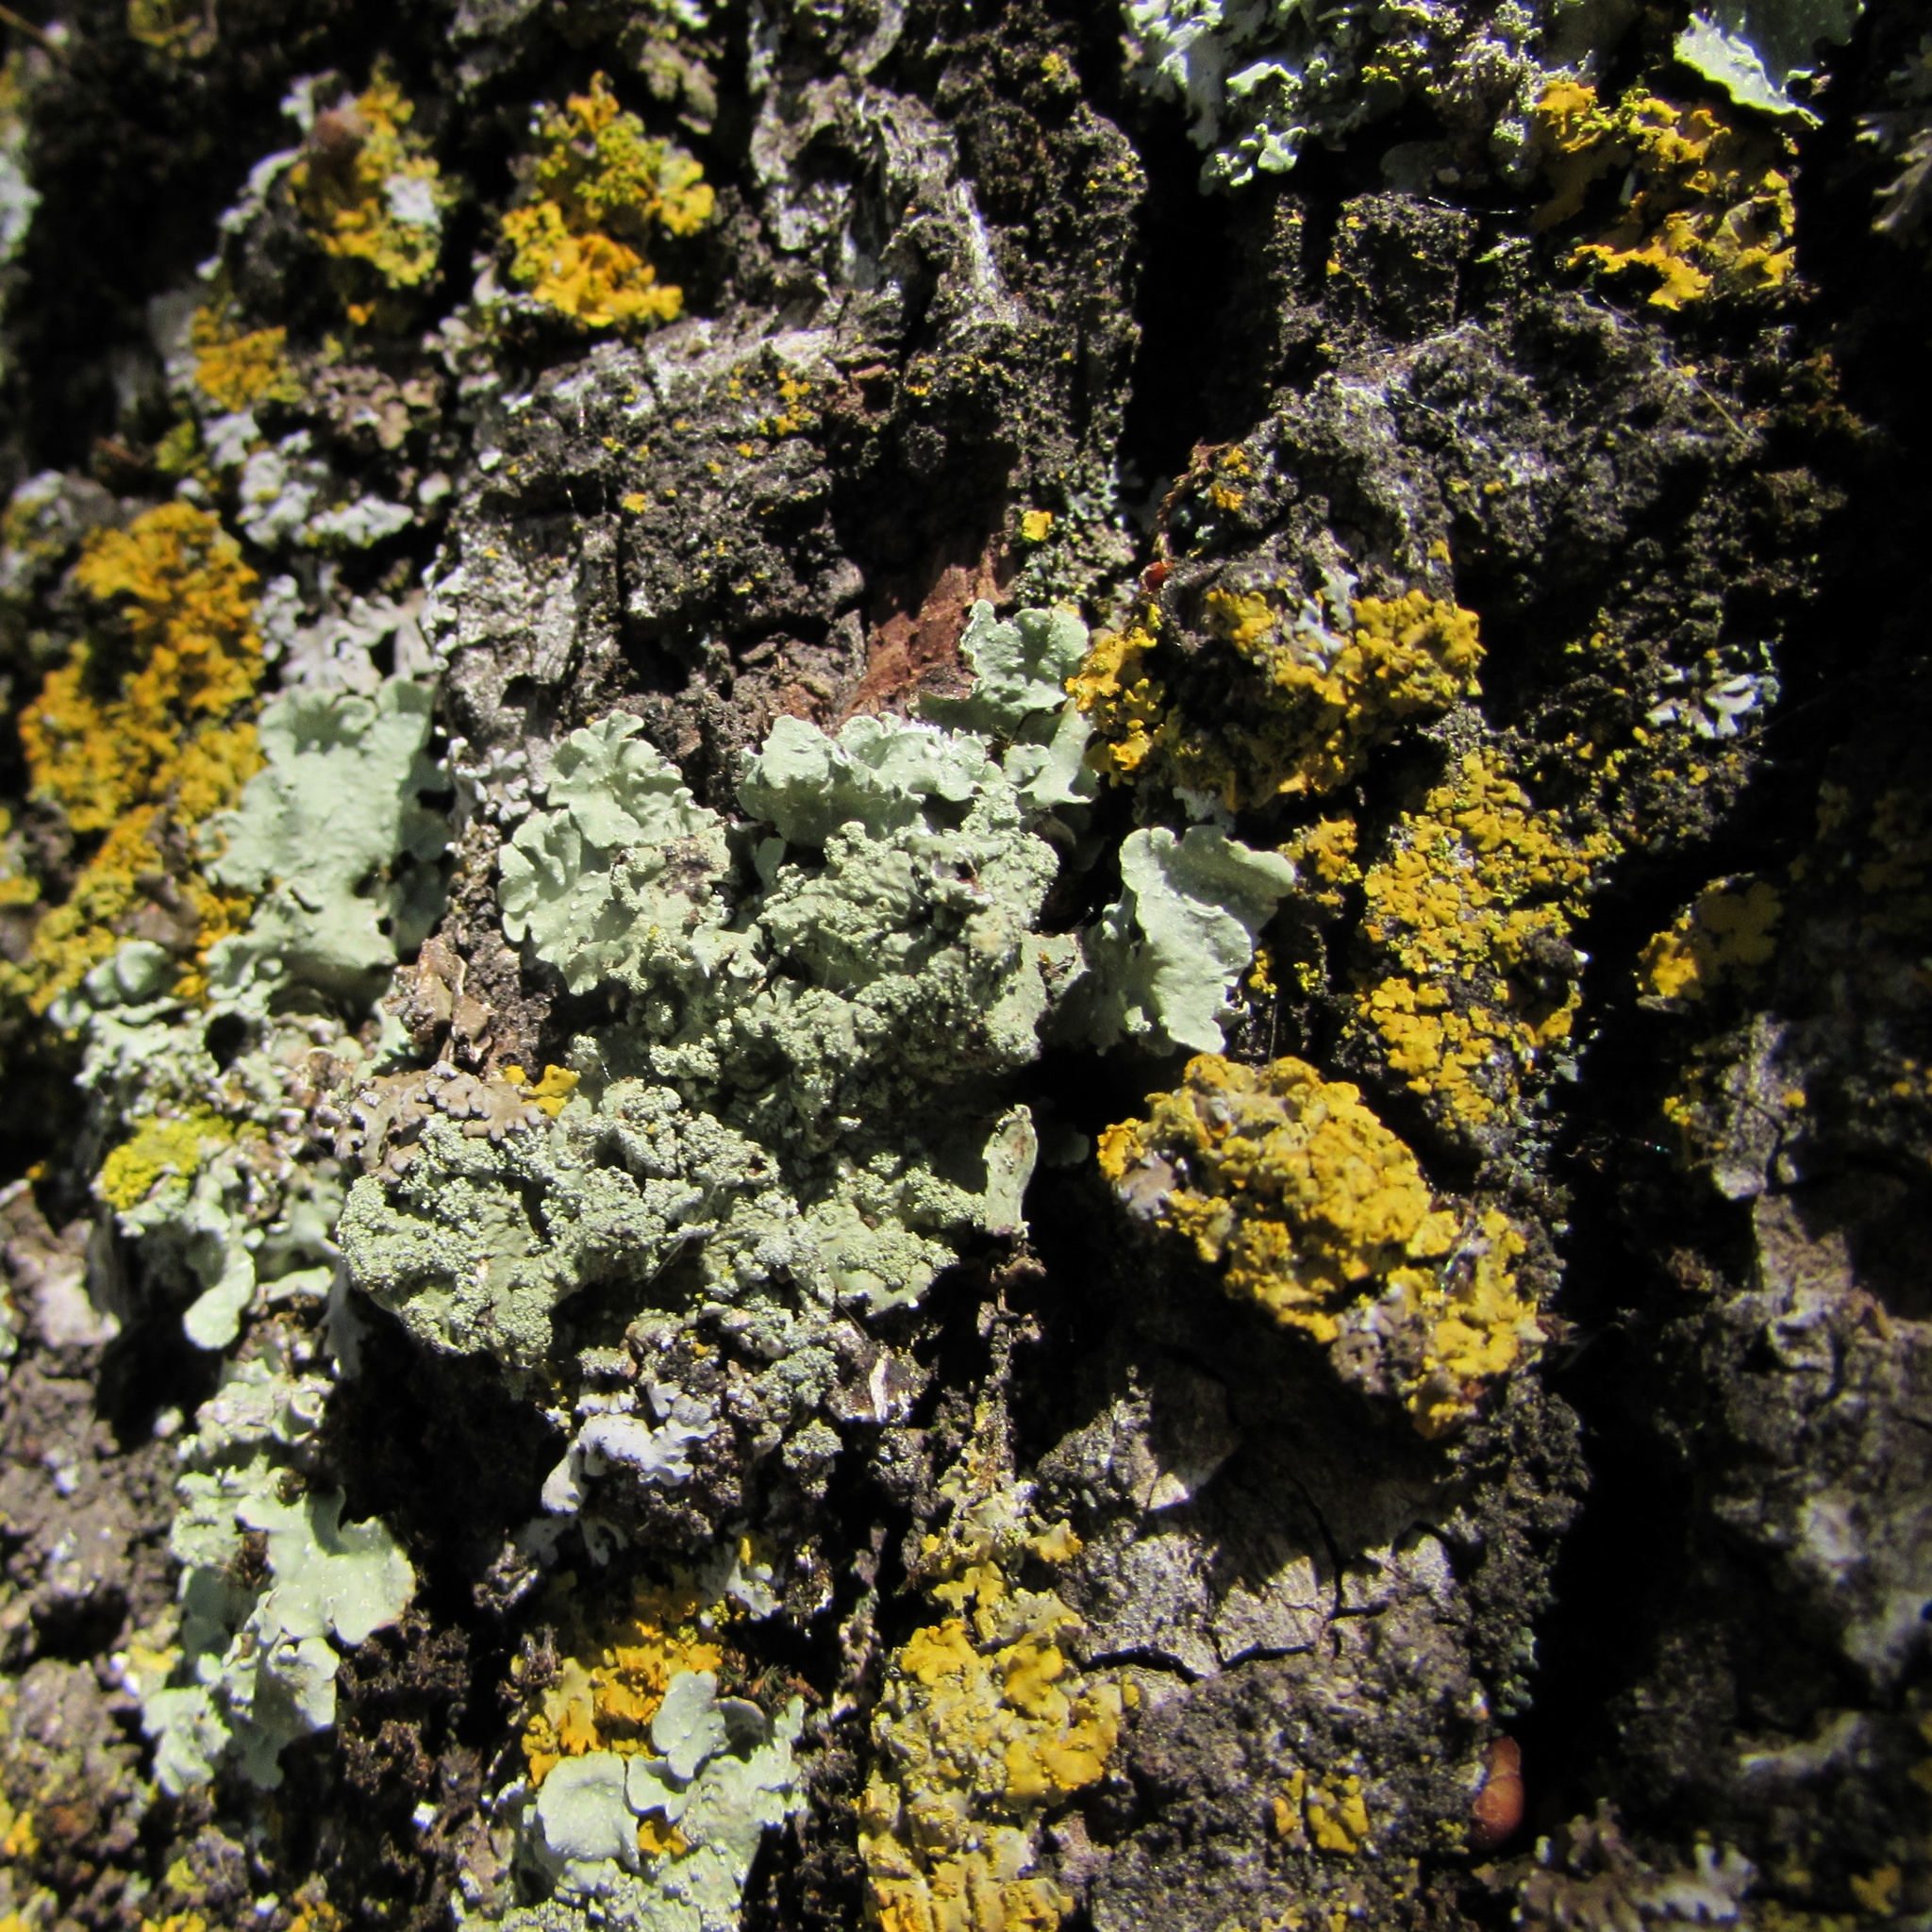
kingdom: Fungi
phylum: Ascomycota
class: Lecanoromycetes
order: Lecanorales
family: Parmeliaceae
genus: Flavoparmelia
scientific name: Flavoparmelia caperata
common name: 40-mile per hour lichen
